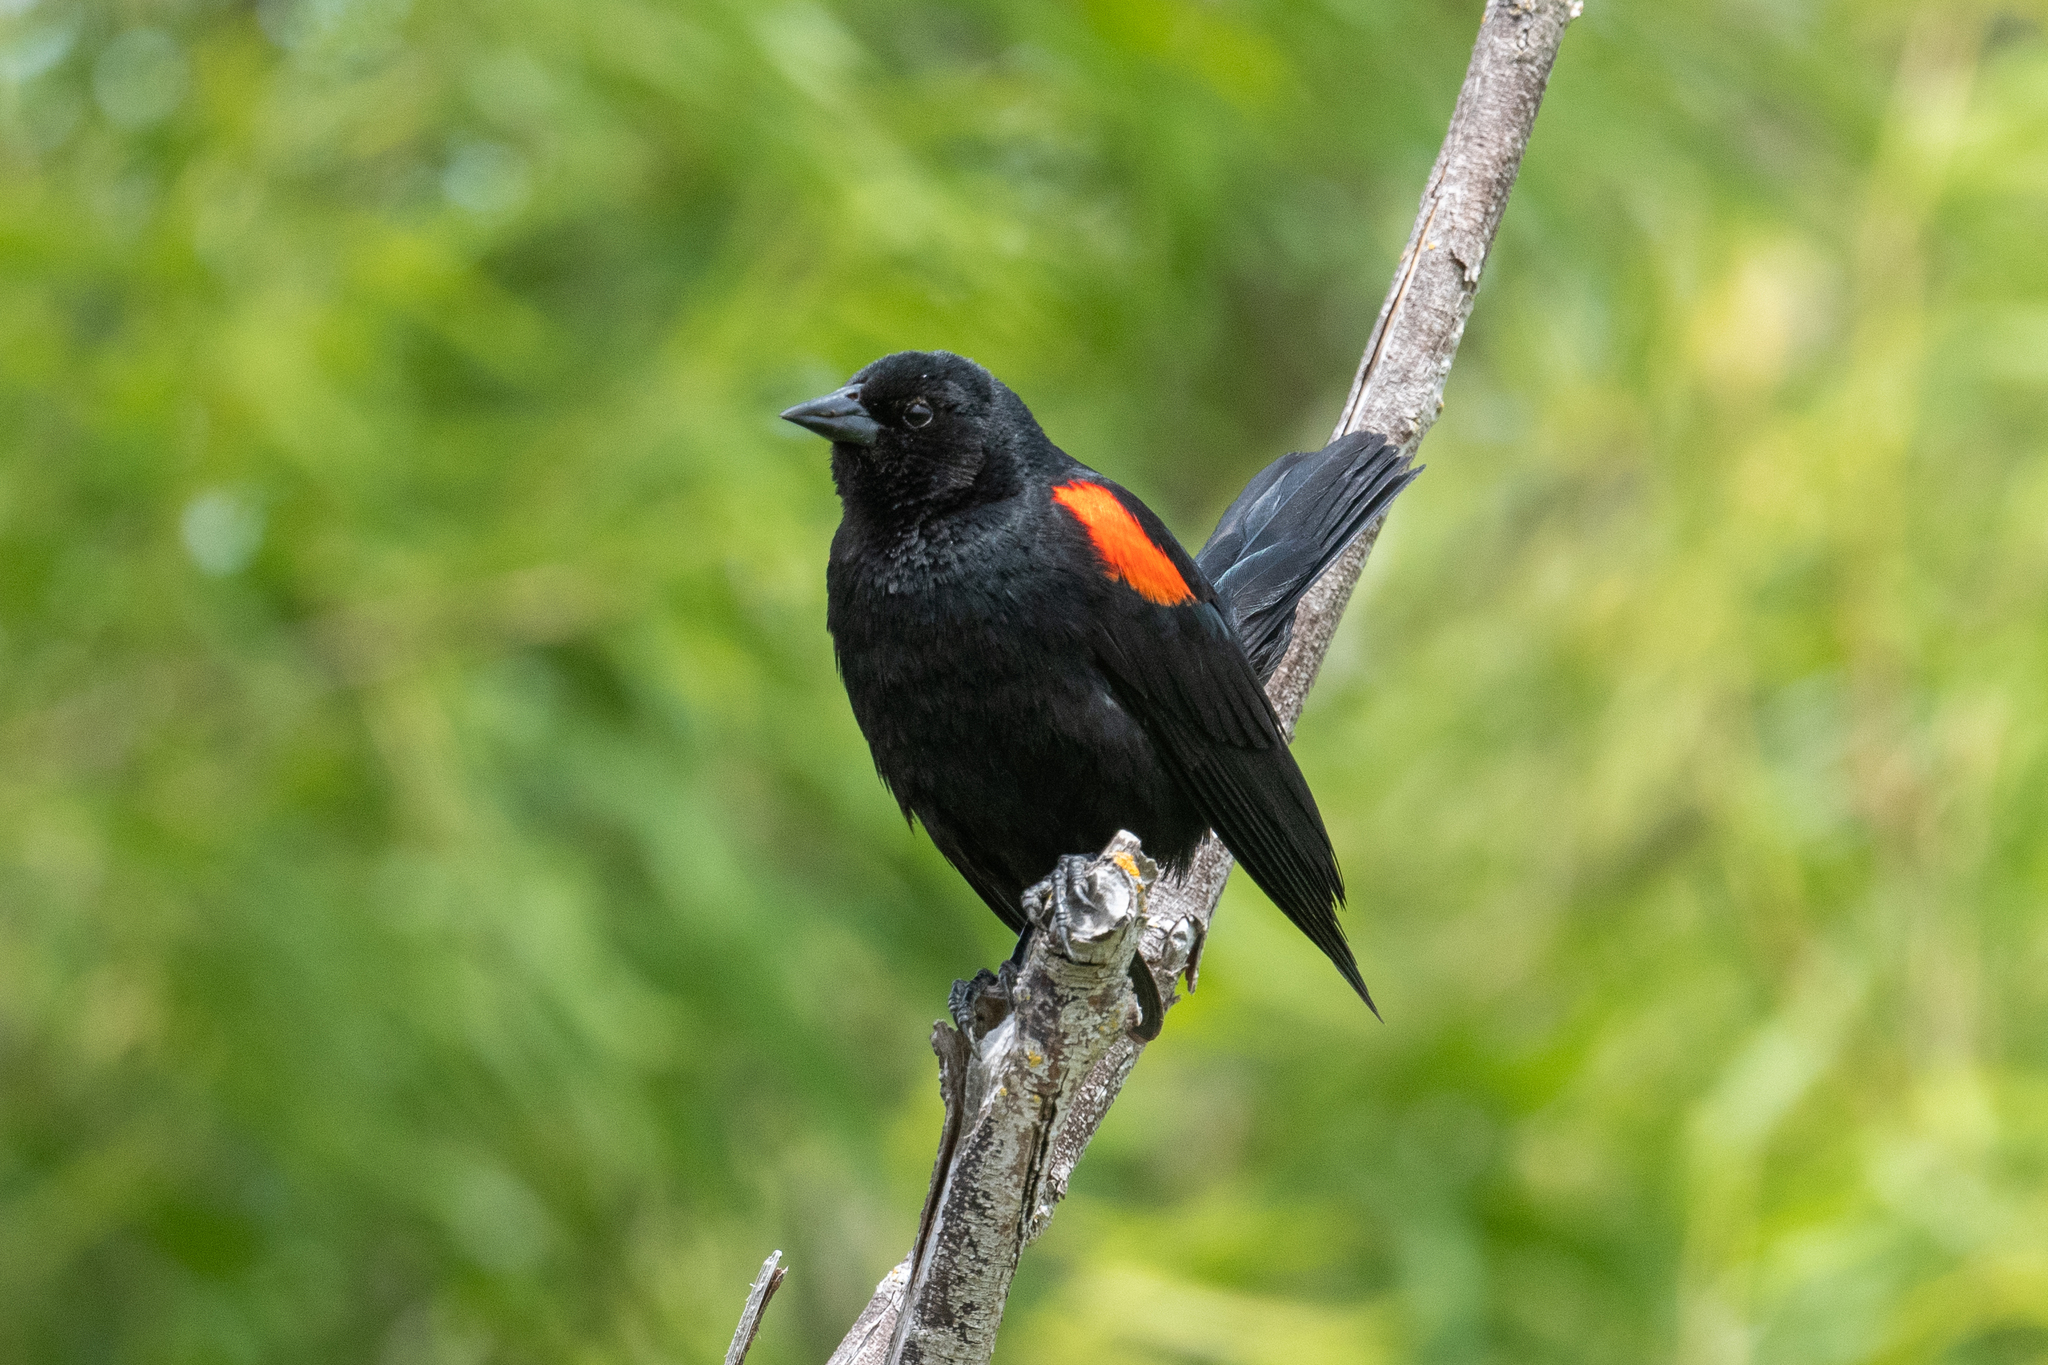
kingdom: Animalia
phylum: Chordata
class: Aves
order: Passeriformes
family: Icteridae
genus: Agelaius
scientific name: Agelaius phoeniceus
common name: Red-winged blackbird
